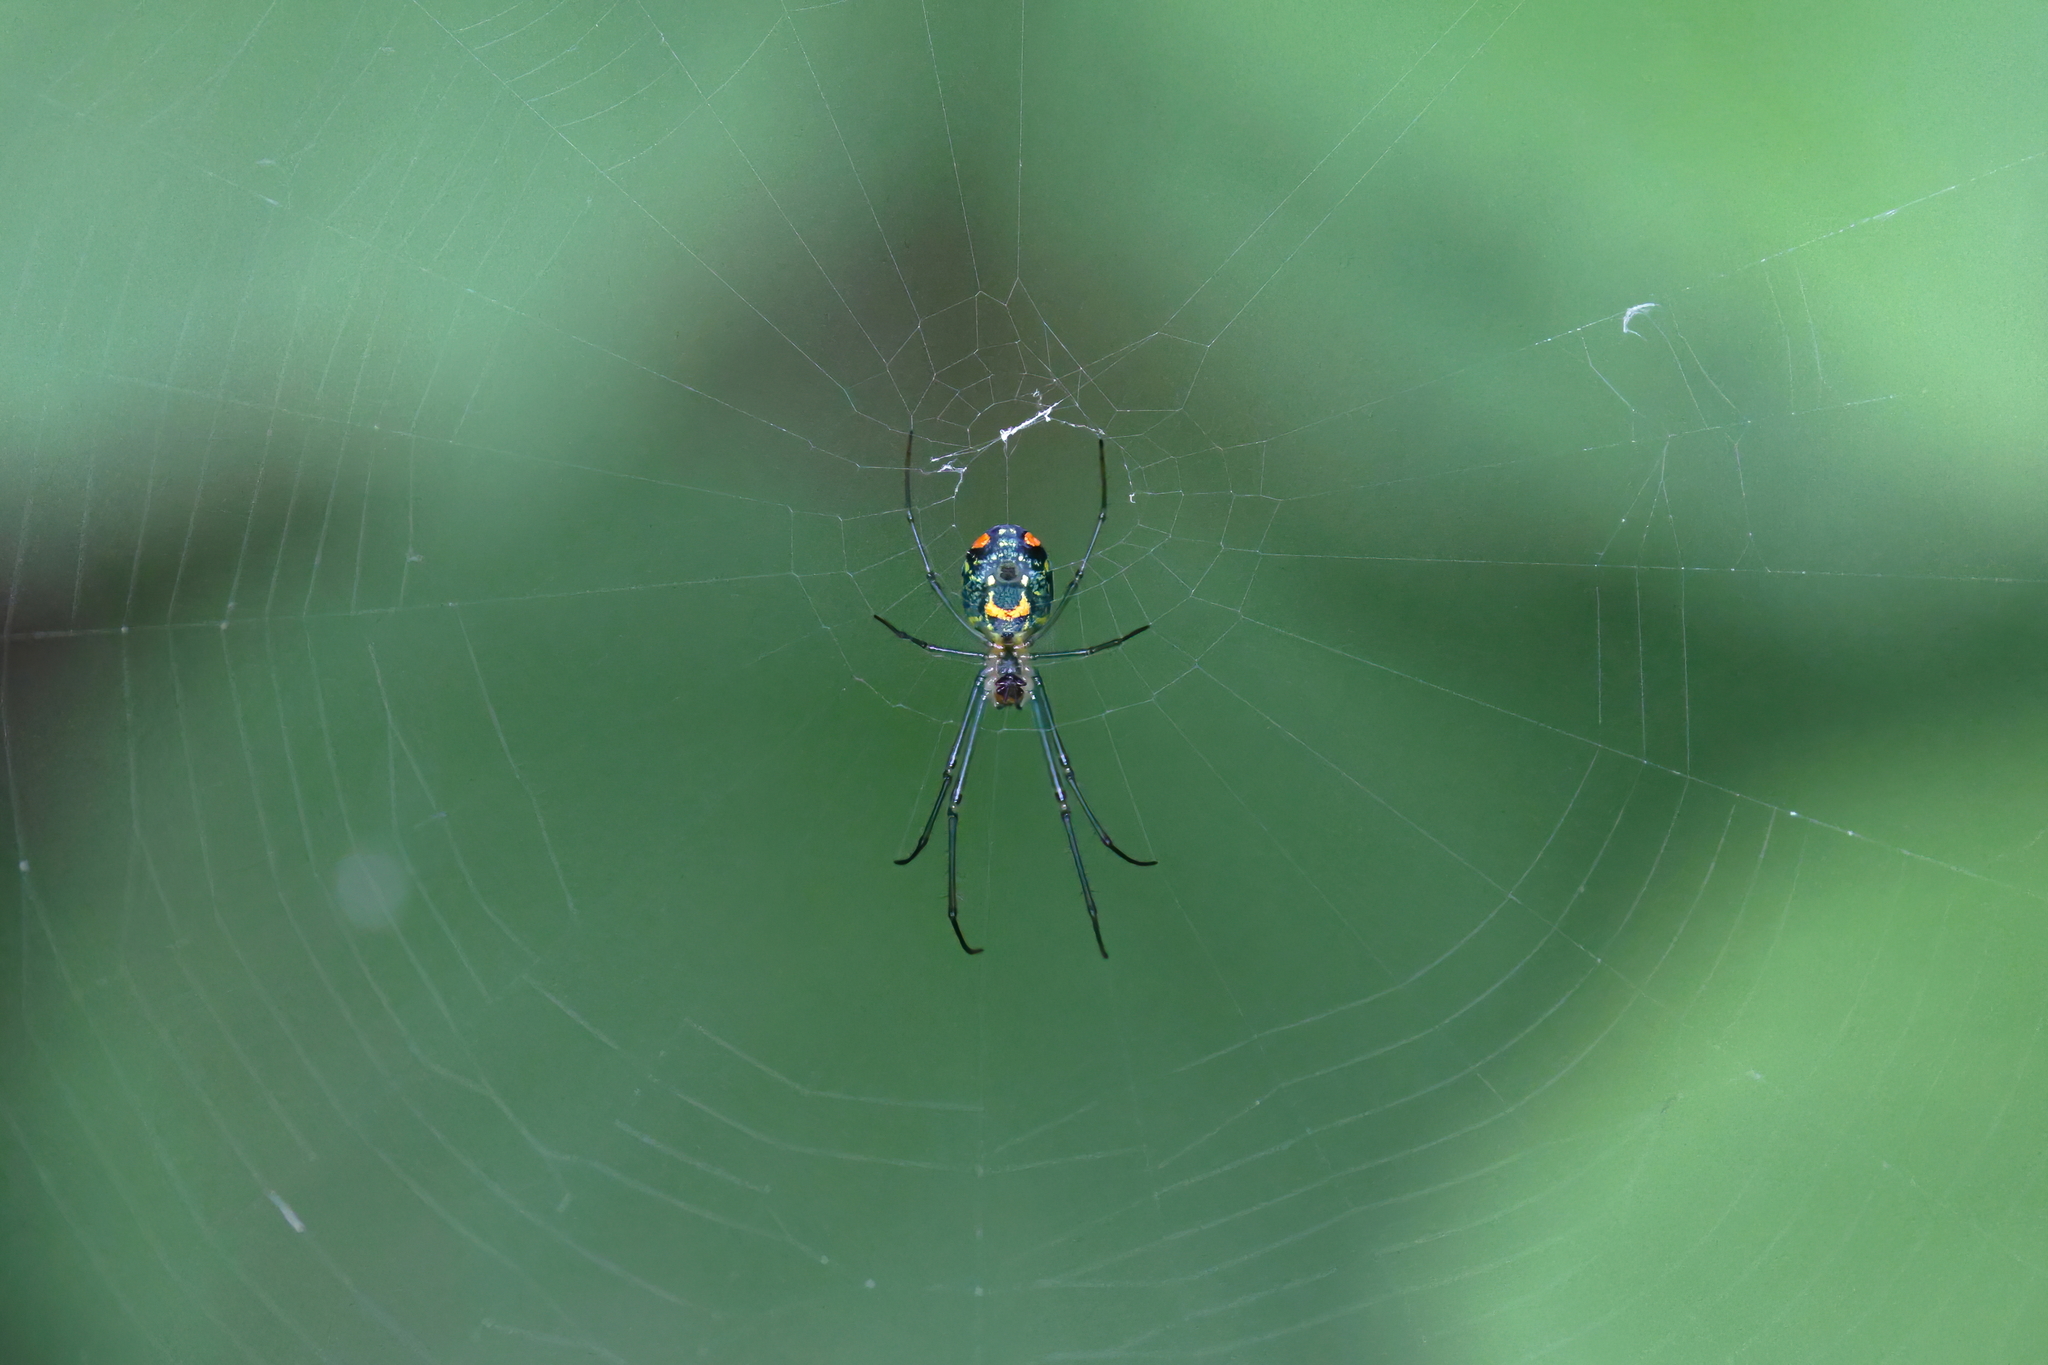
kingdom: Animalia
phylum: Arthropoda
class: Arachnida
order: Araneae
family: Tetragnathidae
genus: Leucauge
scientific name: Leucauge argyrobapta
